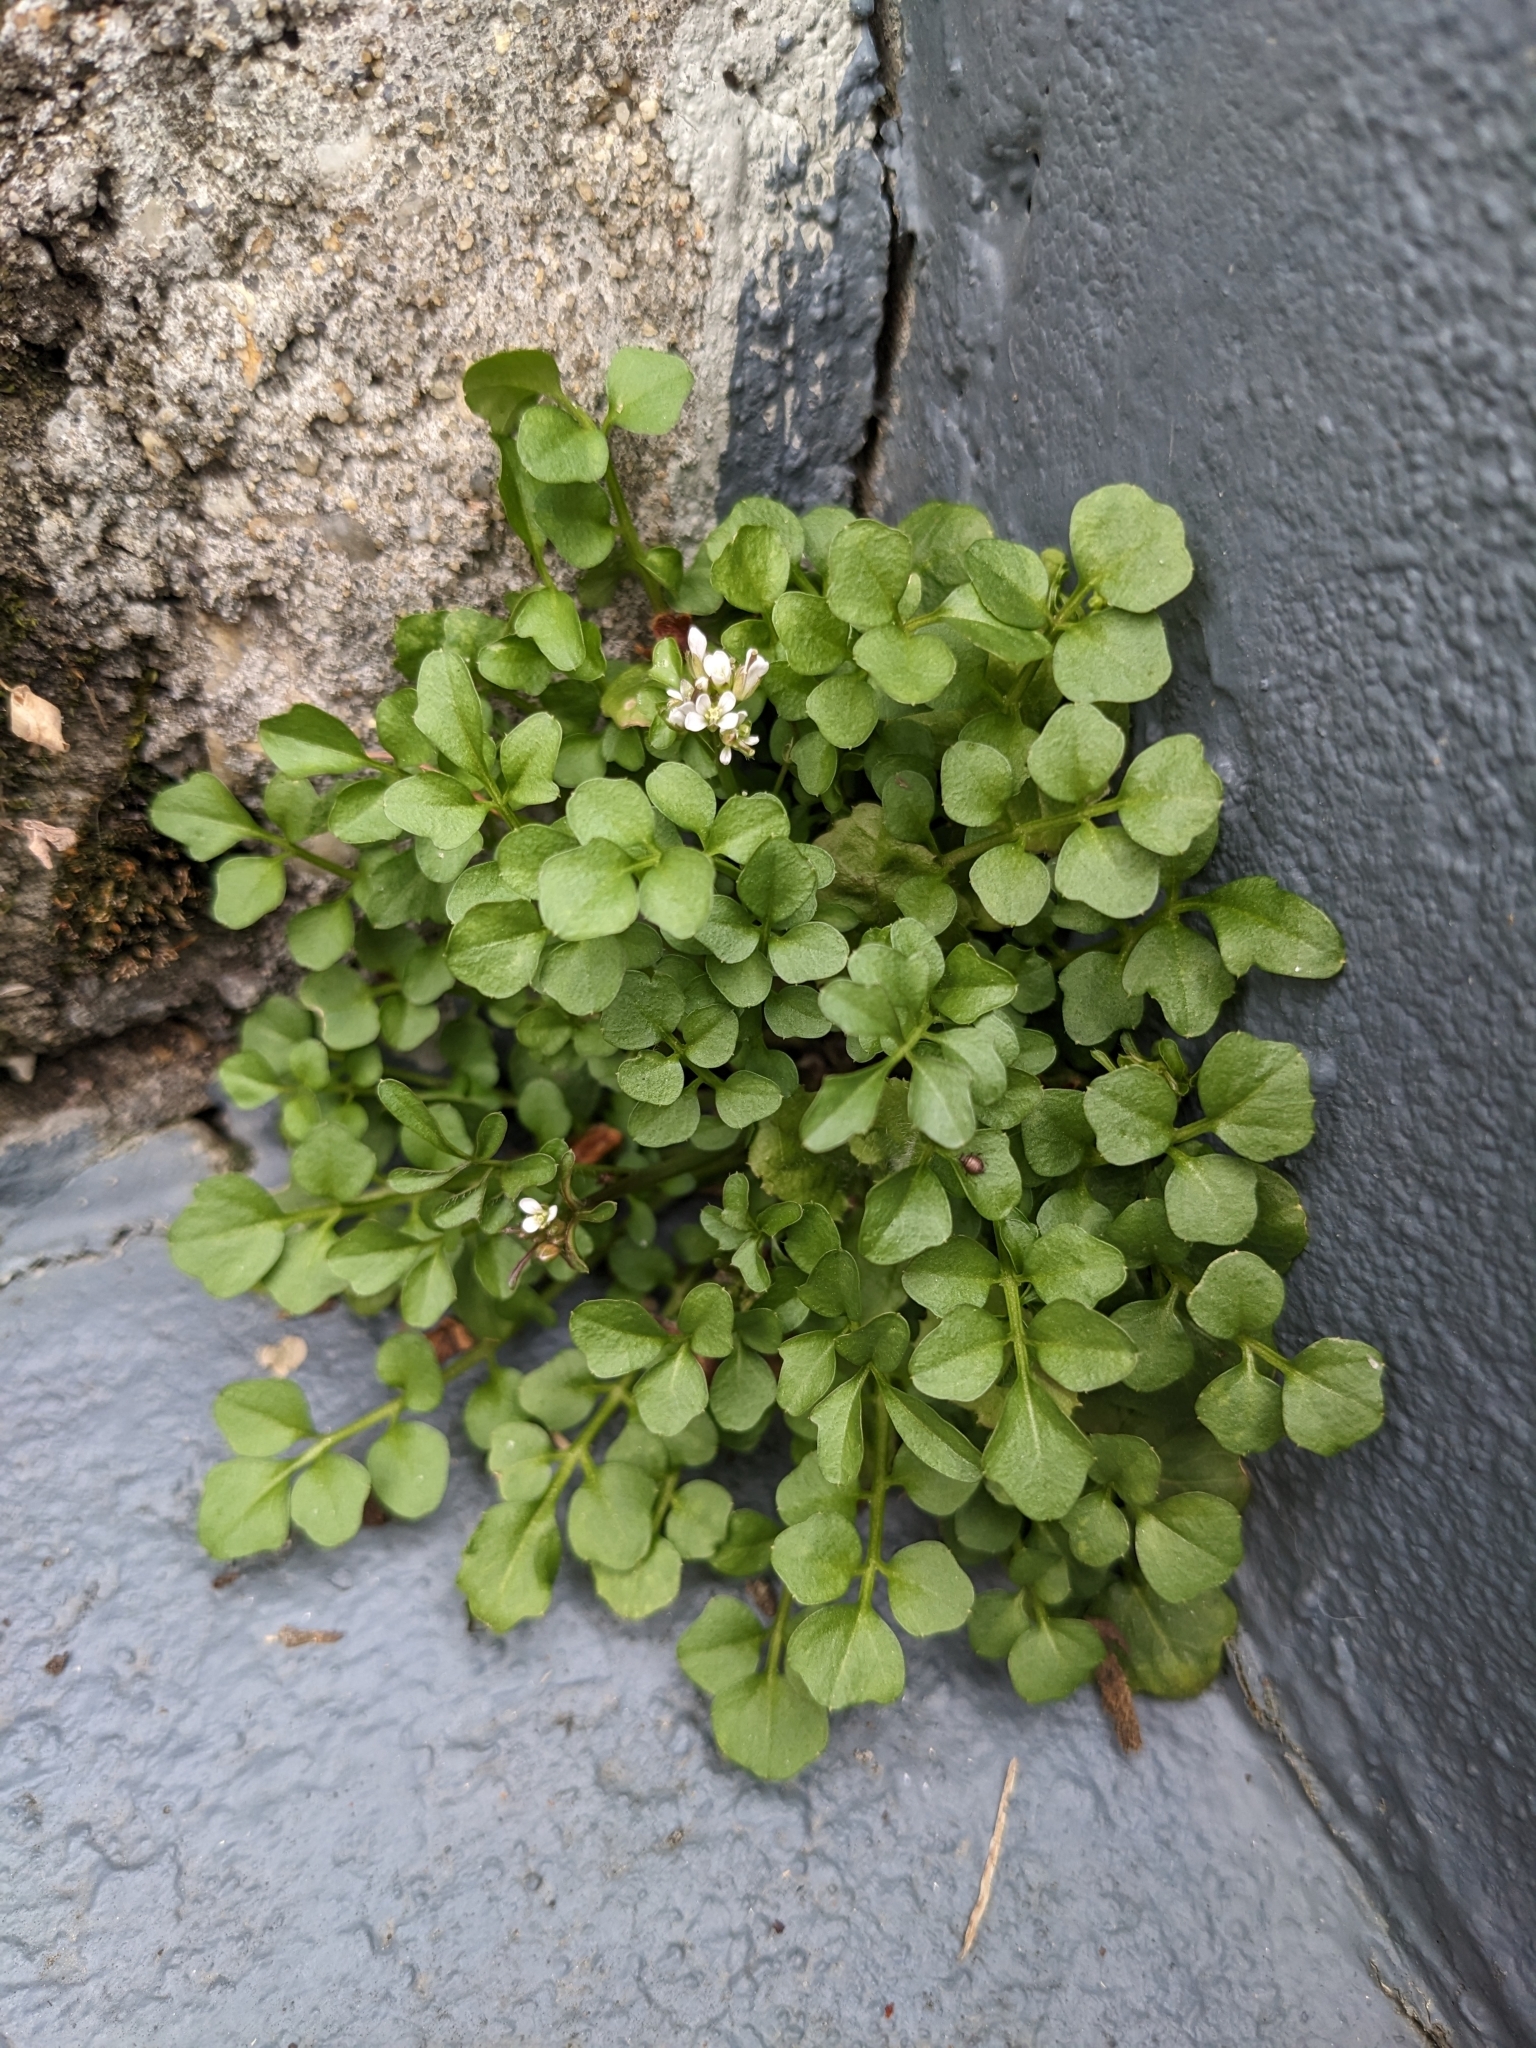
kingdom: Plantae
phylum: Tracheophyta
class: Magnoliopsida
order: Brassicales
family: Brassicaceae
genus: Cardamine
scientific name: Cardamine hirsuta
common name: Hairy bittercress
